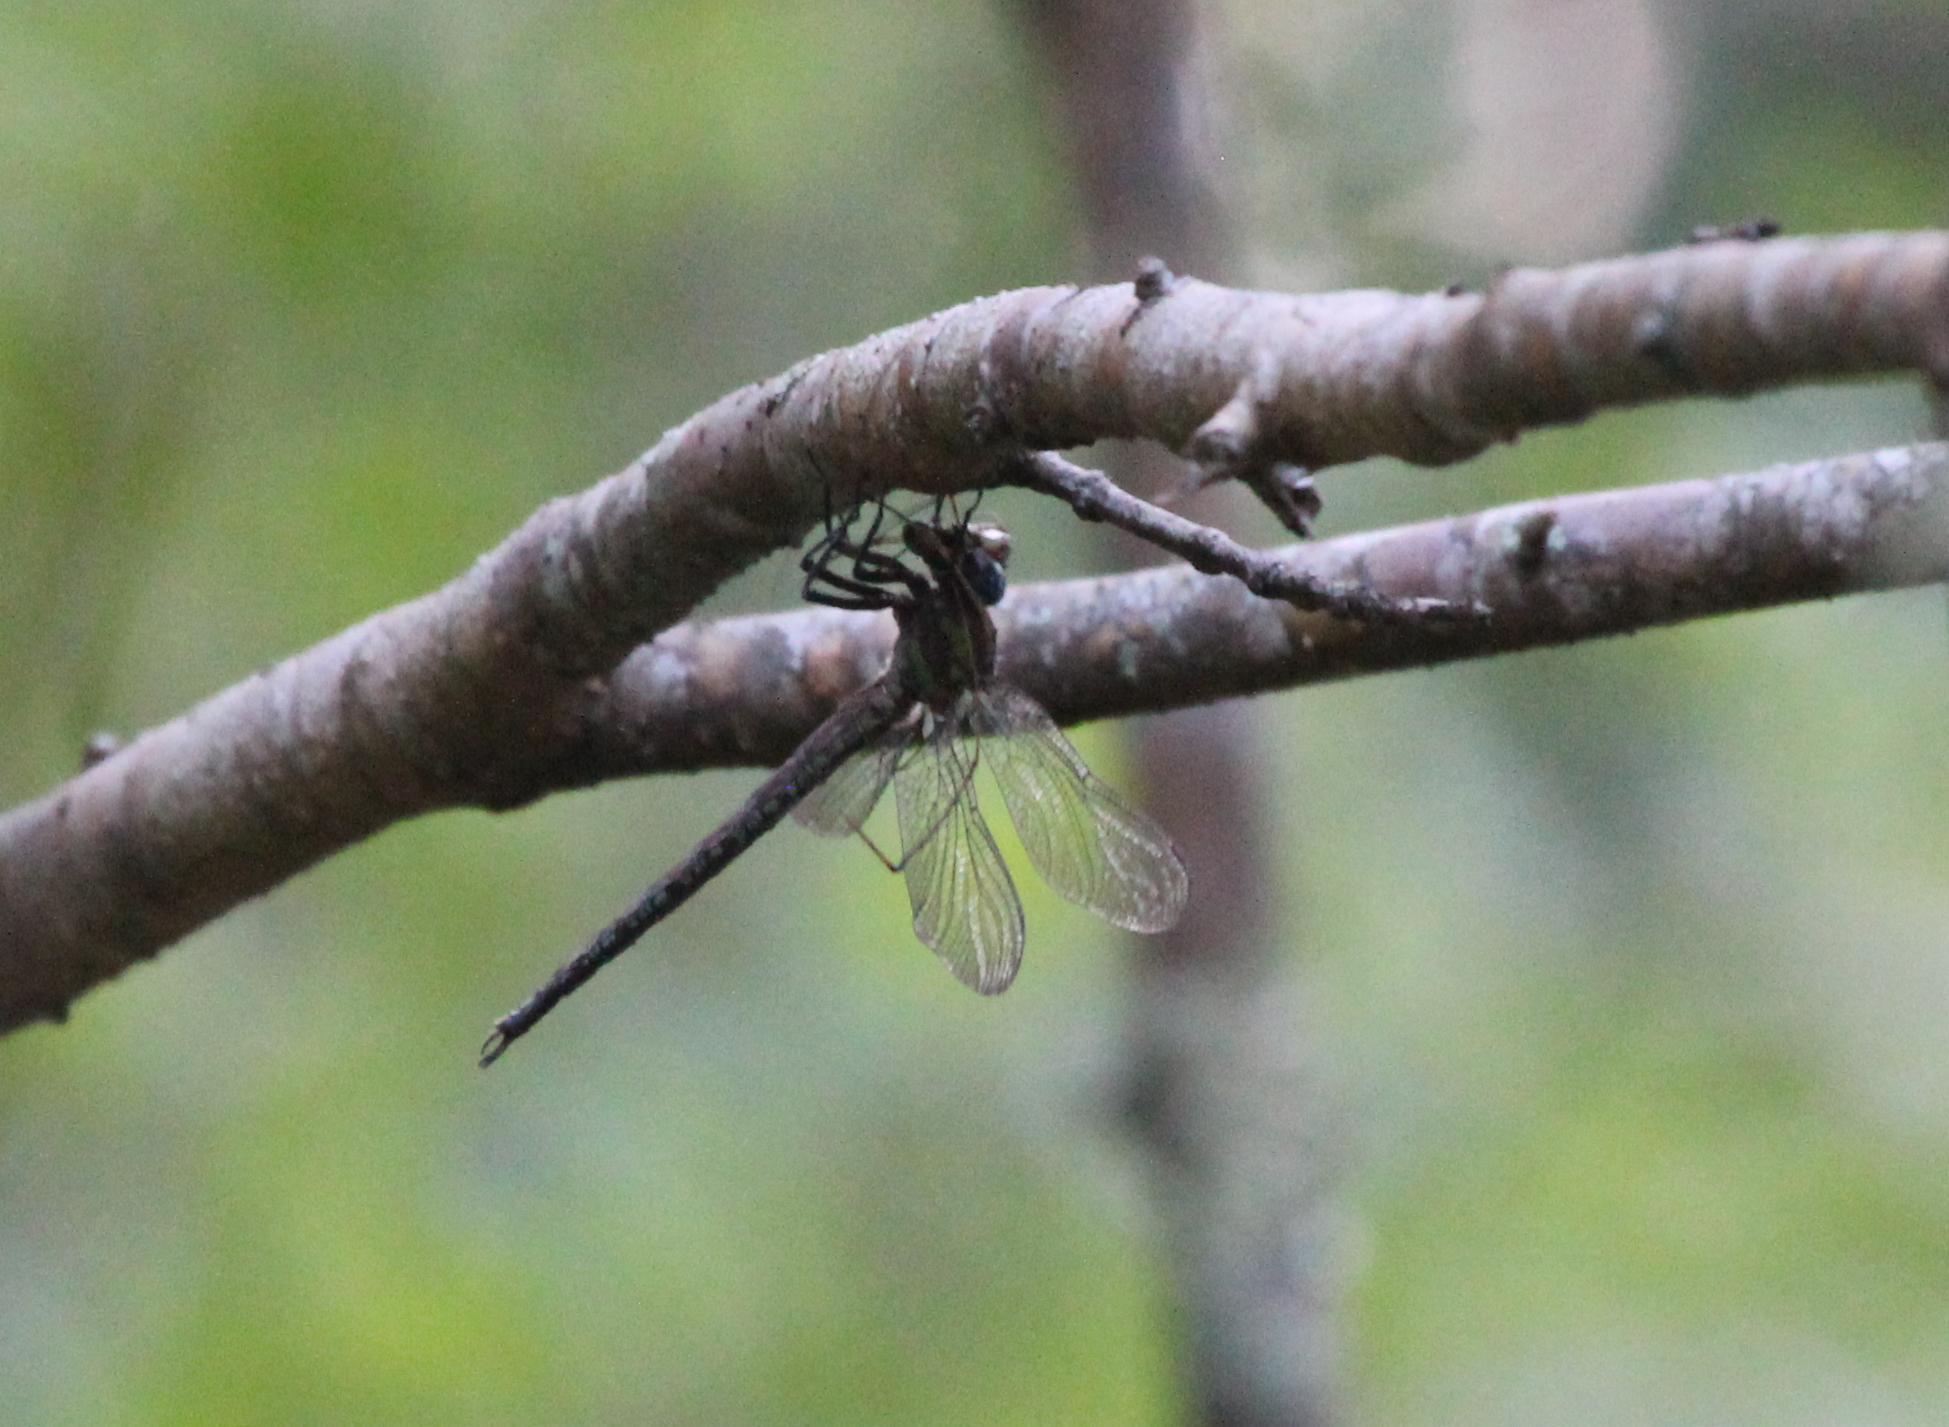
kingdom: Animalia
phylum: Arthropoda
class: Insecta
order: Odonata
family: Aeshnidae
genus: Nasiaeschna
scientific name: Nasiaeschna pentacantha
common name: Cyrano darner
